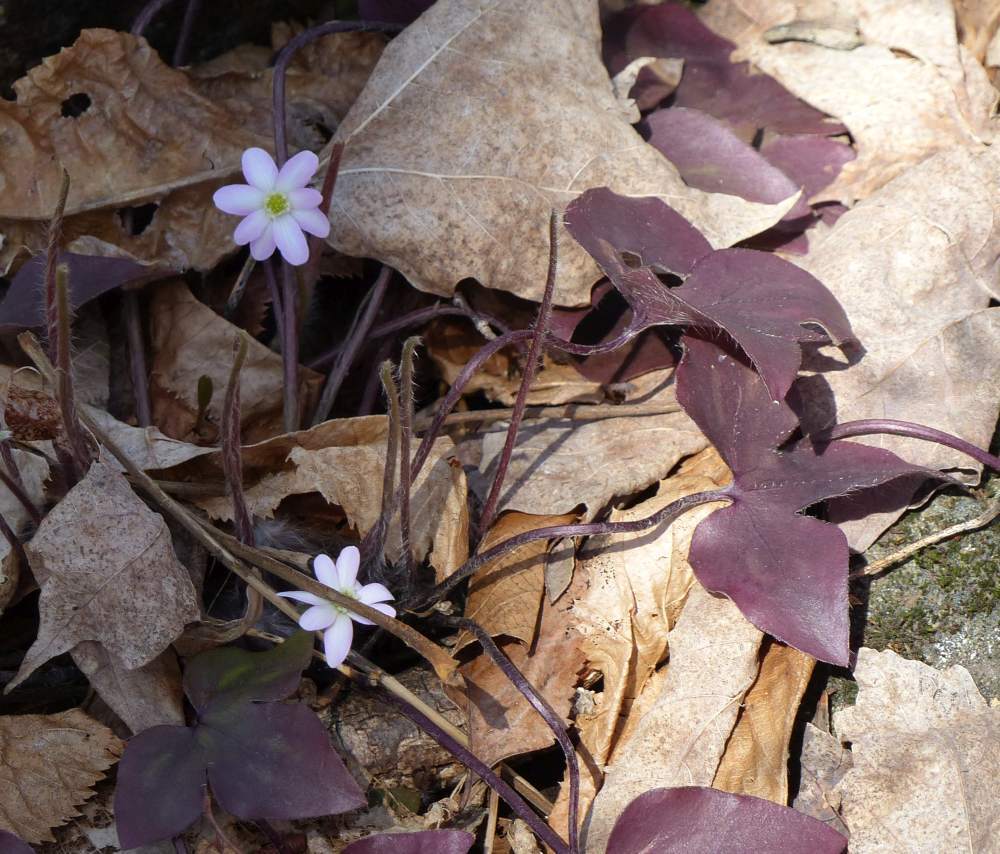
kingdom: Plantae
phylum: Tracheophyta
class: Magnoliopsida
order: Ranunculales
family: Ranunculaceae
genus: Hepatica
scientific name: Hepatica acutiloba
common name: Sharp-lobed hepatica
